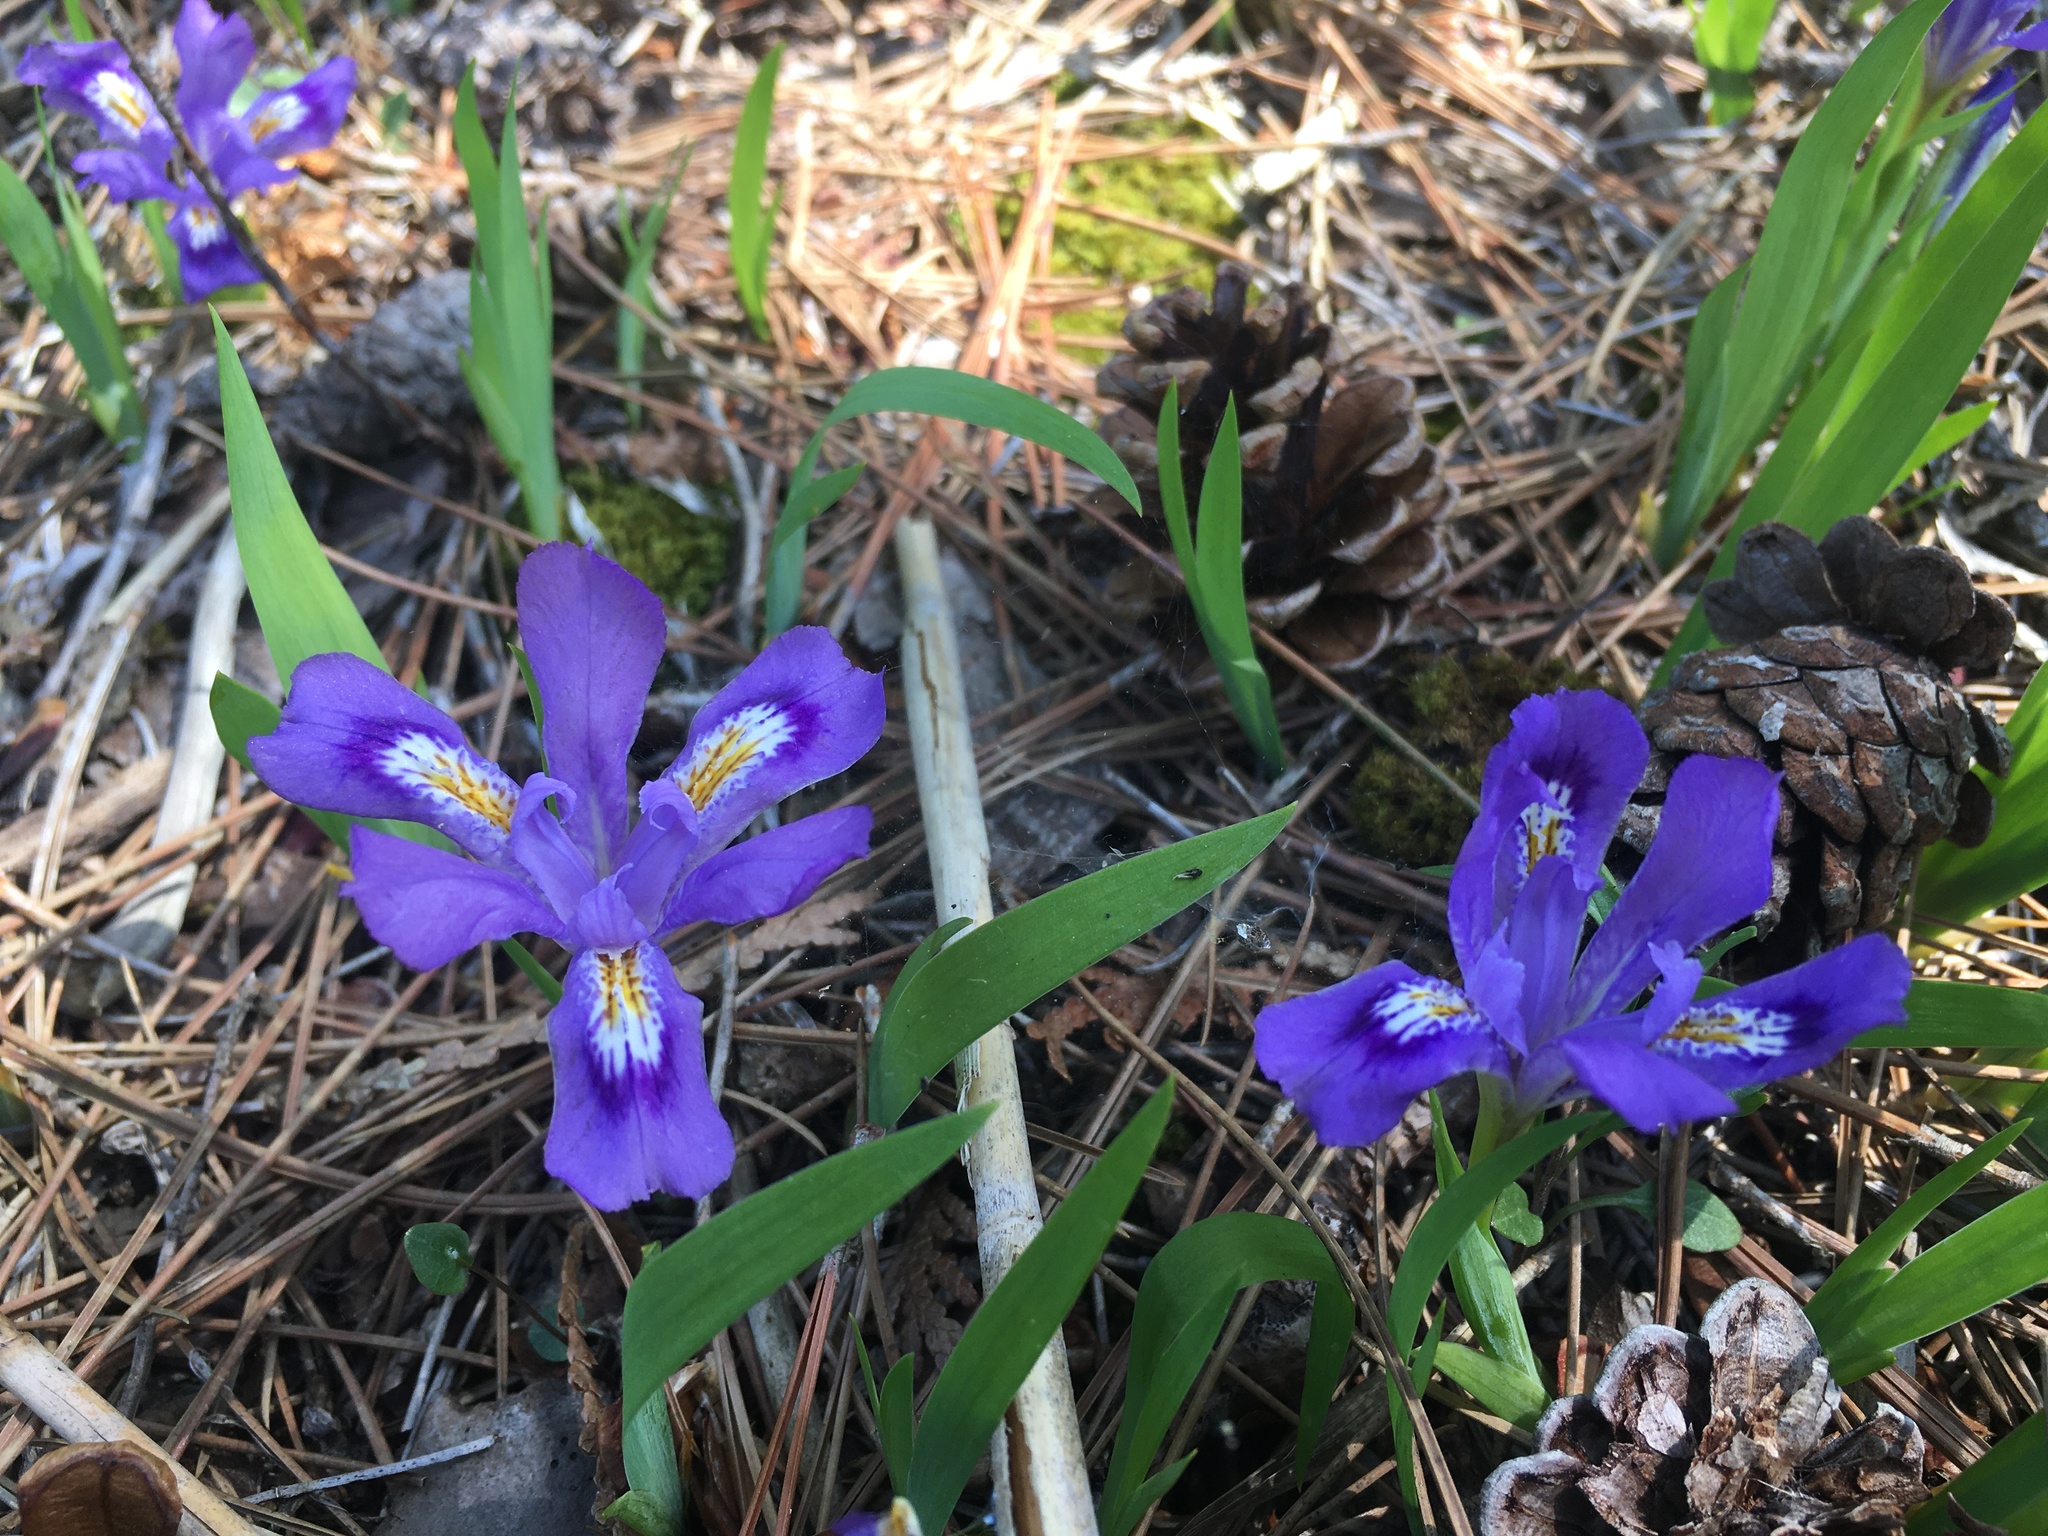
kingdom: Plantae
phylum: Tracheophyta
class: Liliopsida
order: Asparagales
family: Iridaceae
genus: Iris
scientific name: Iris lacustris
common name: Dwarf lake iris
